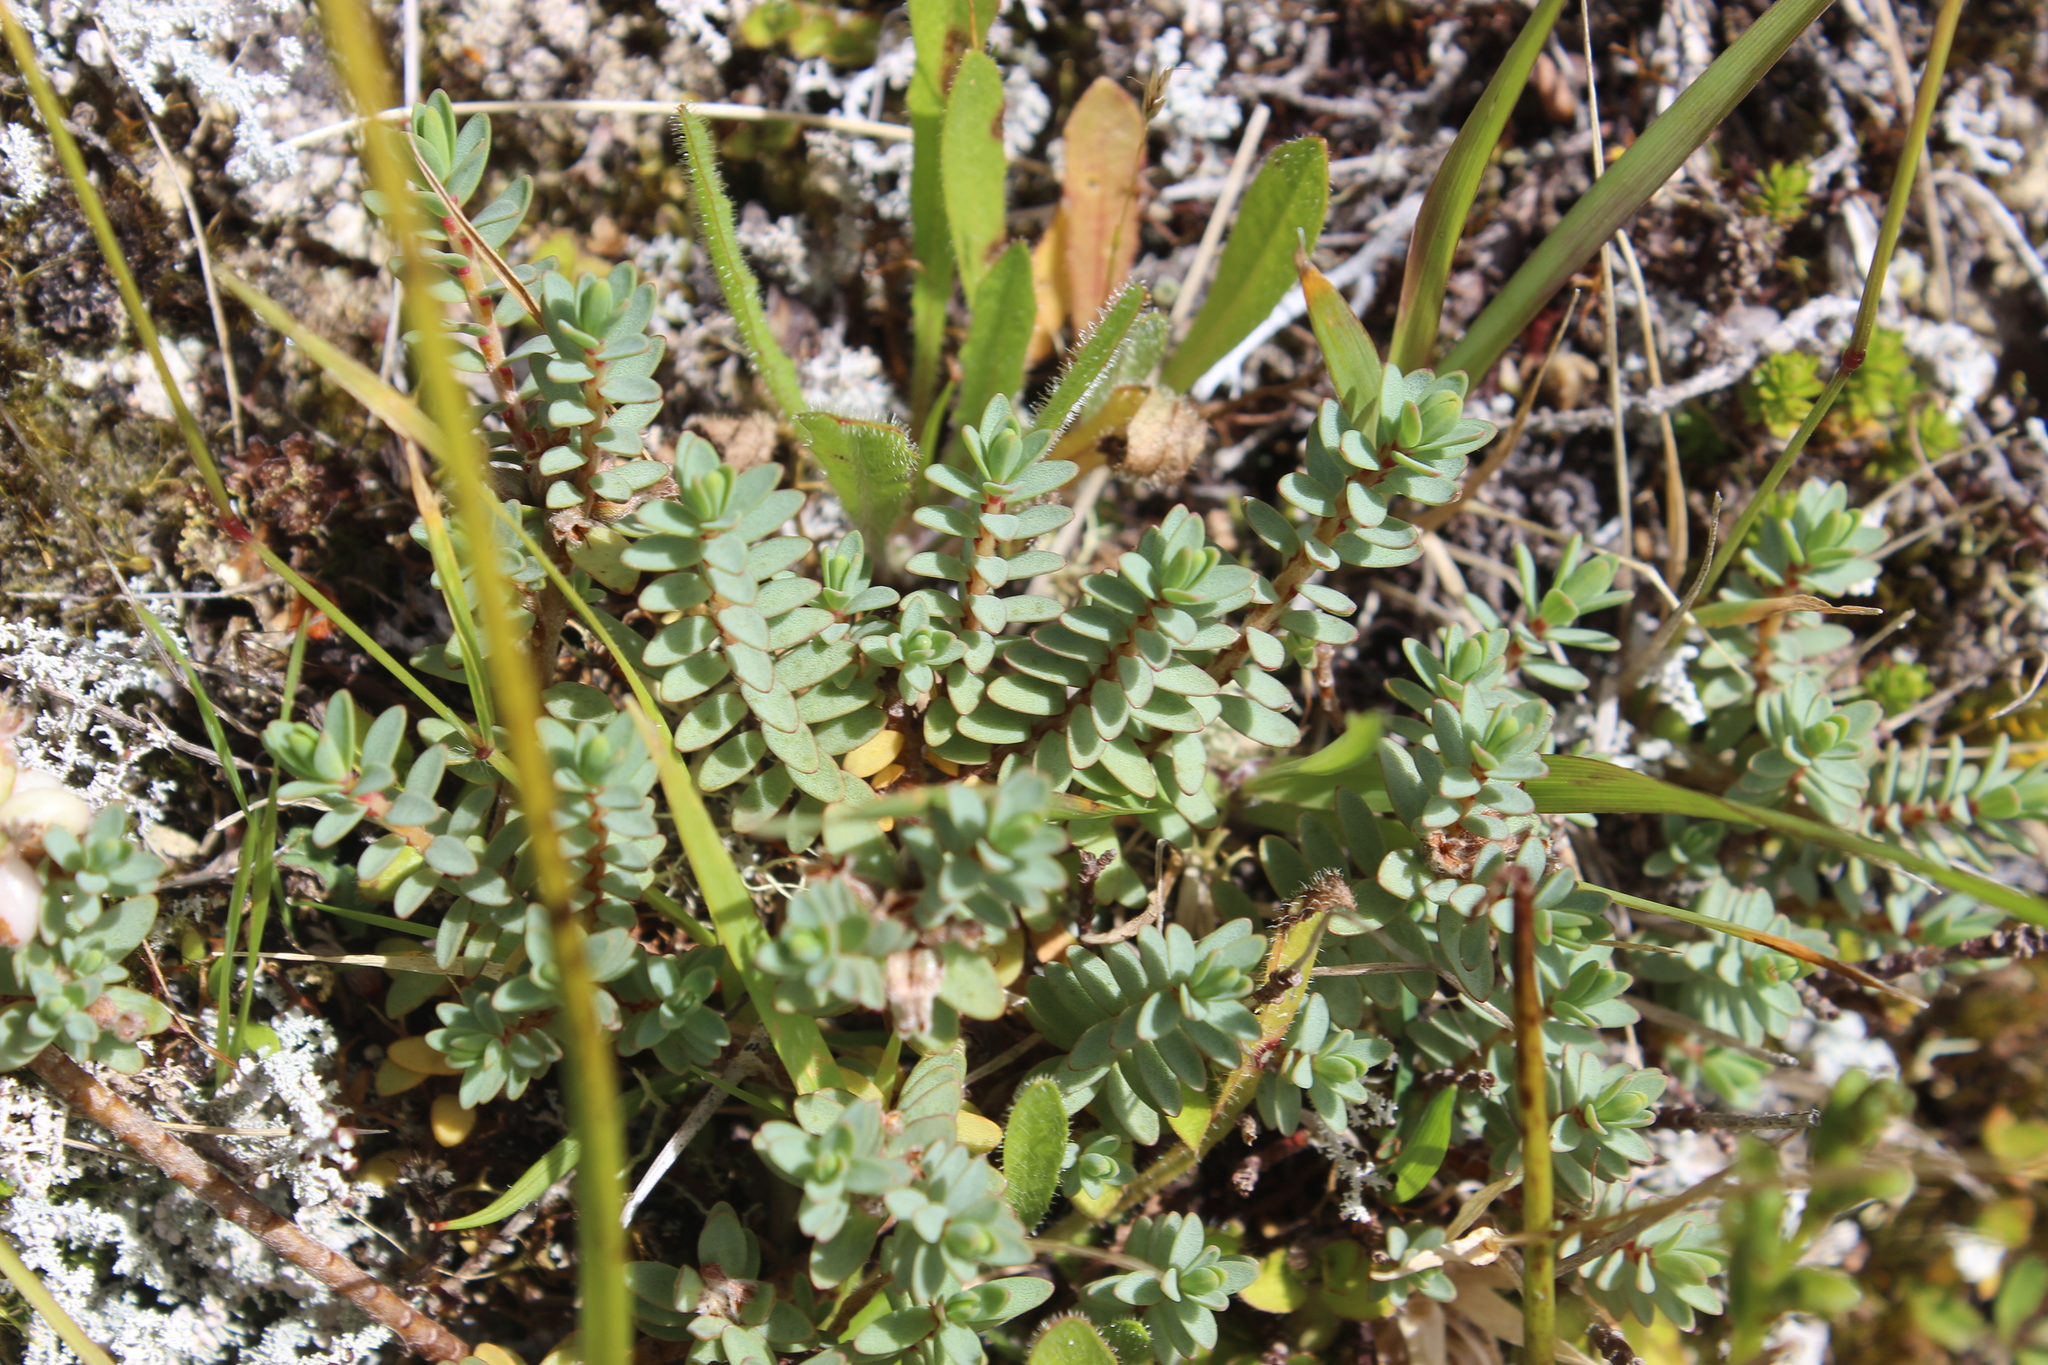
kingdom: Plantae
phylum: Tracheophyta
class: Magnoliopsida
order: Malvales
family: Thymelaeaceae
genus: Pimelea
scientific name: Pimelea prostrata
